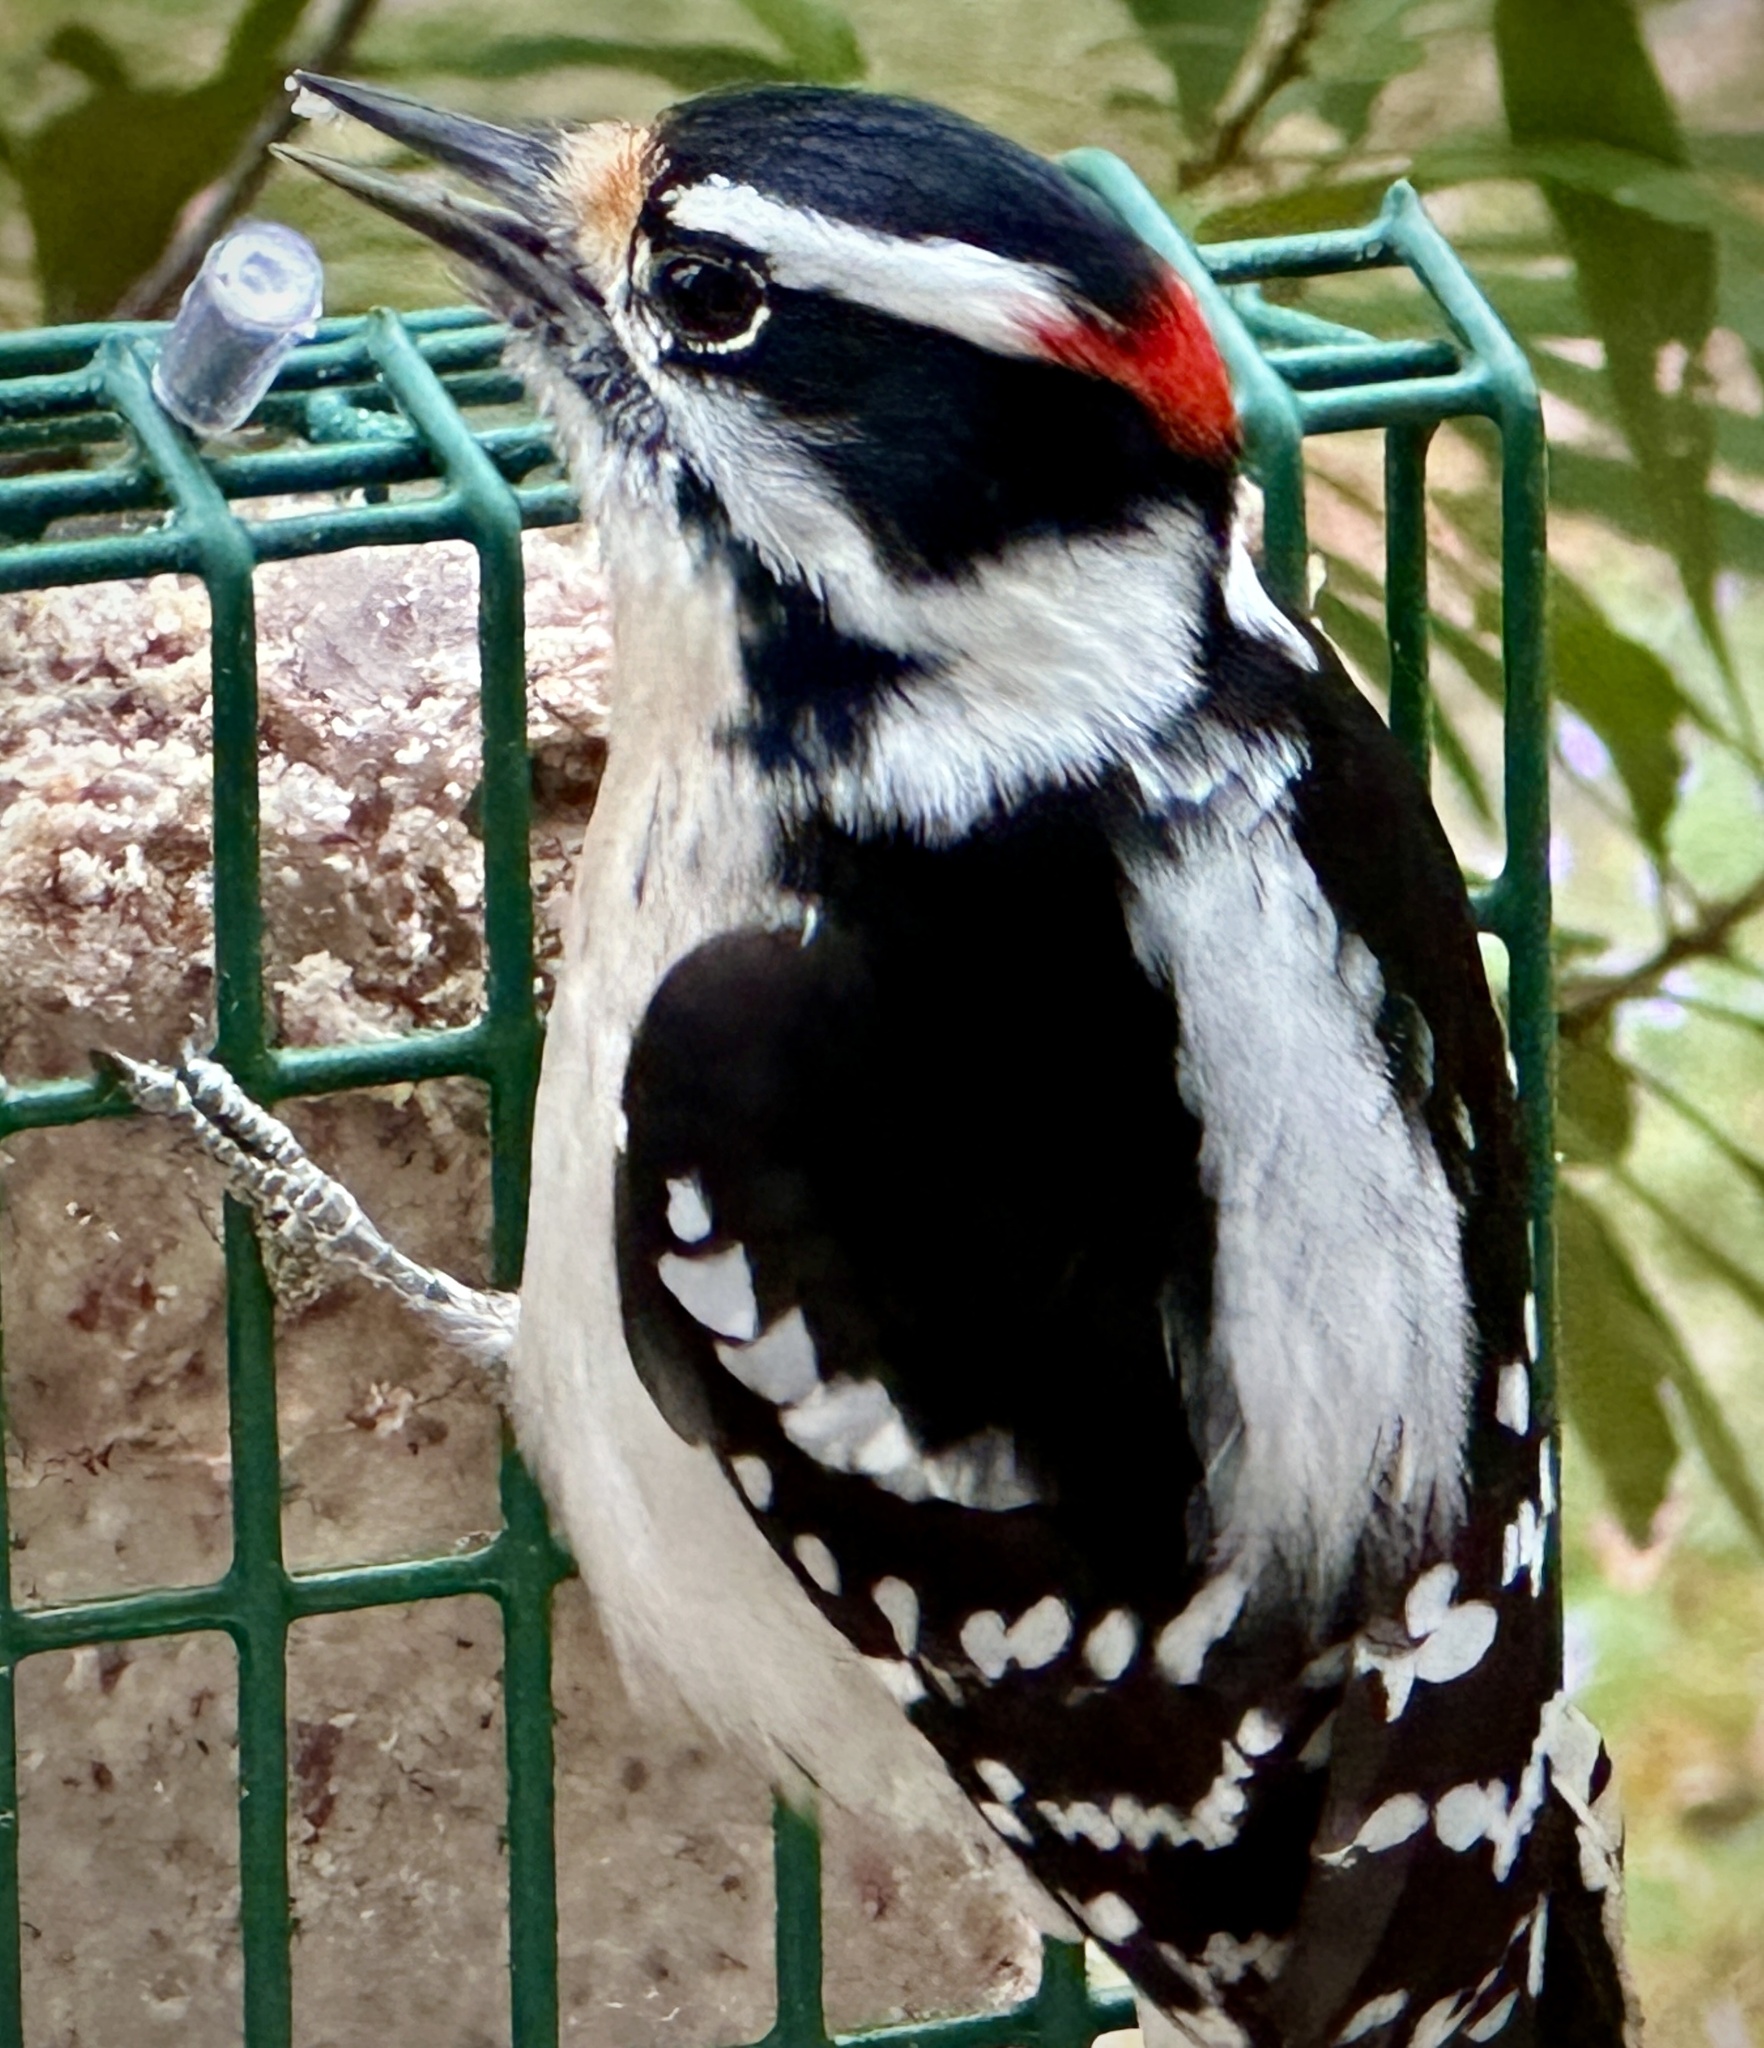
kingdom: Animalia
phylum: Chordata
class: Aves
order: Piciformes
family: Picidae
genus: Dryobates
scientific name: Dryobates pubescens
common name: Downy woodpecker
